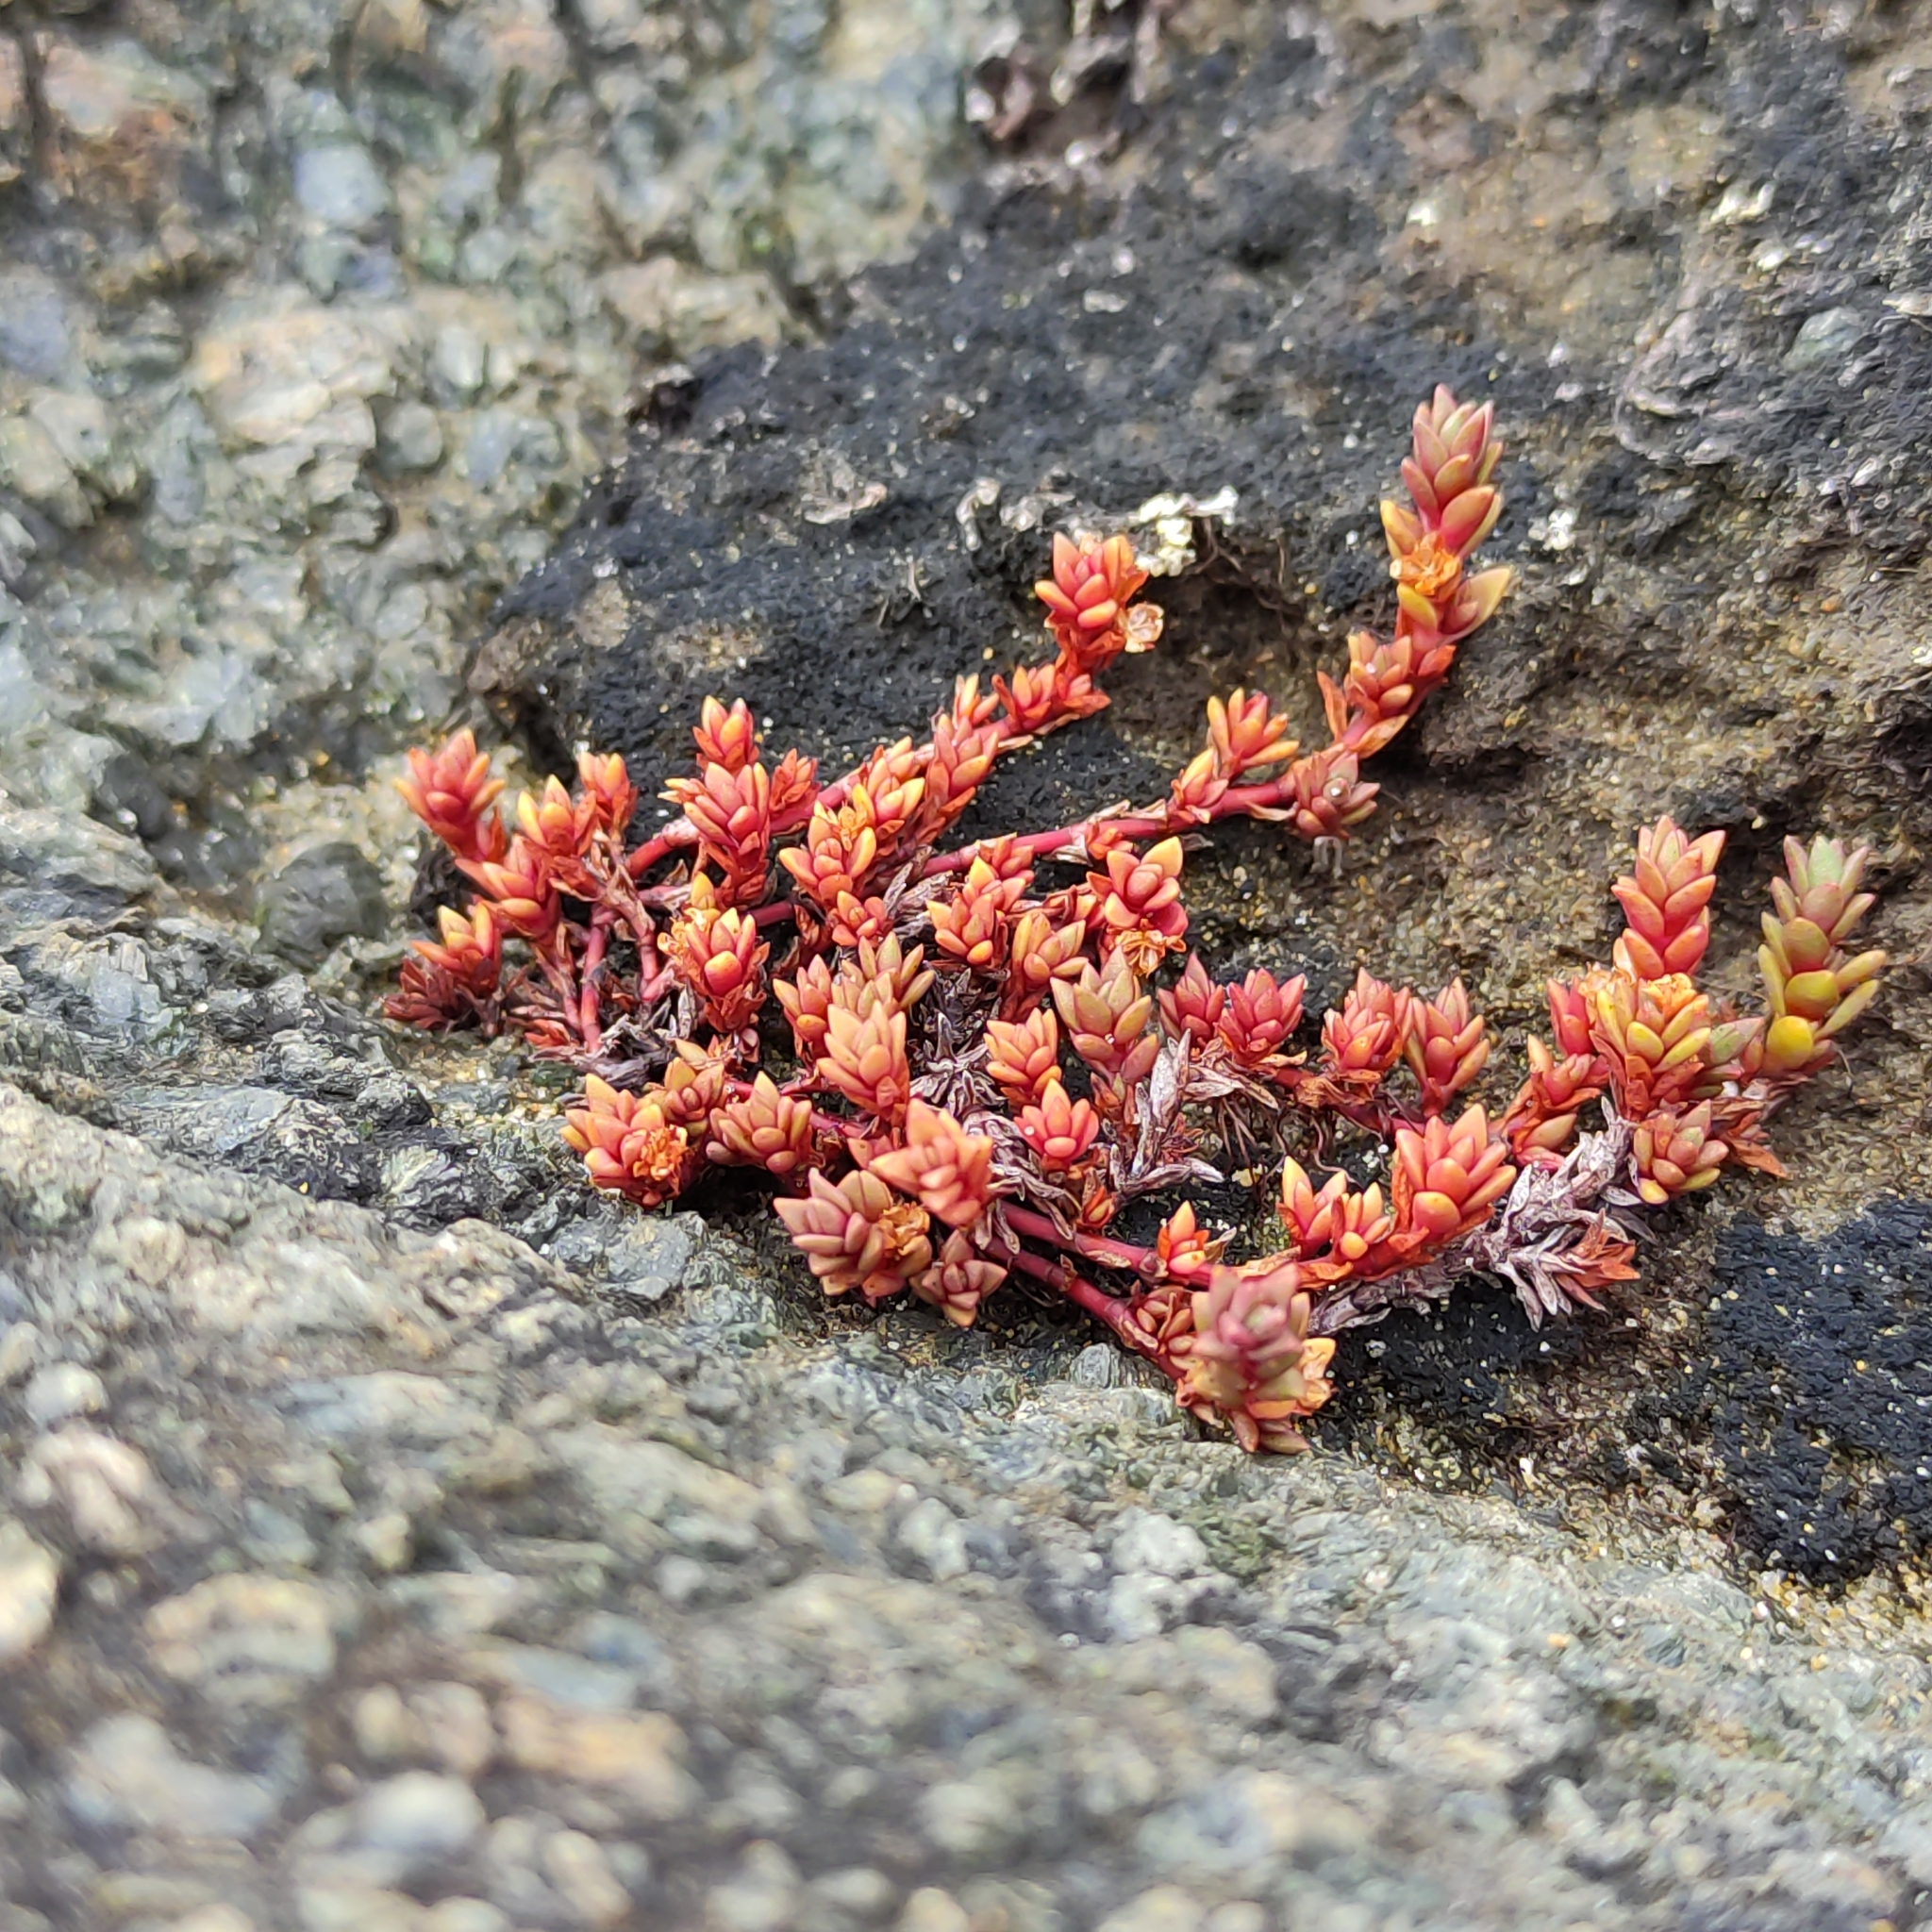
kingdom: Plantae
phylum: Tracheophyta
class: Magnoliopsida
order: Saxifragales
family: Crassulaceae
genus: Crassula
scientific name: Crassula moschata
